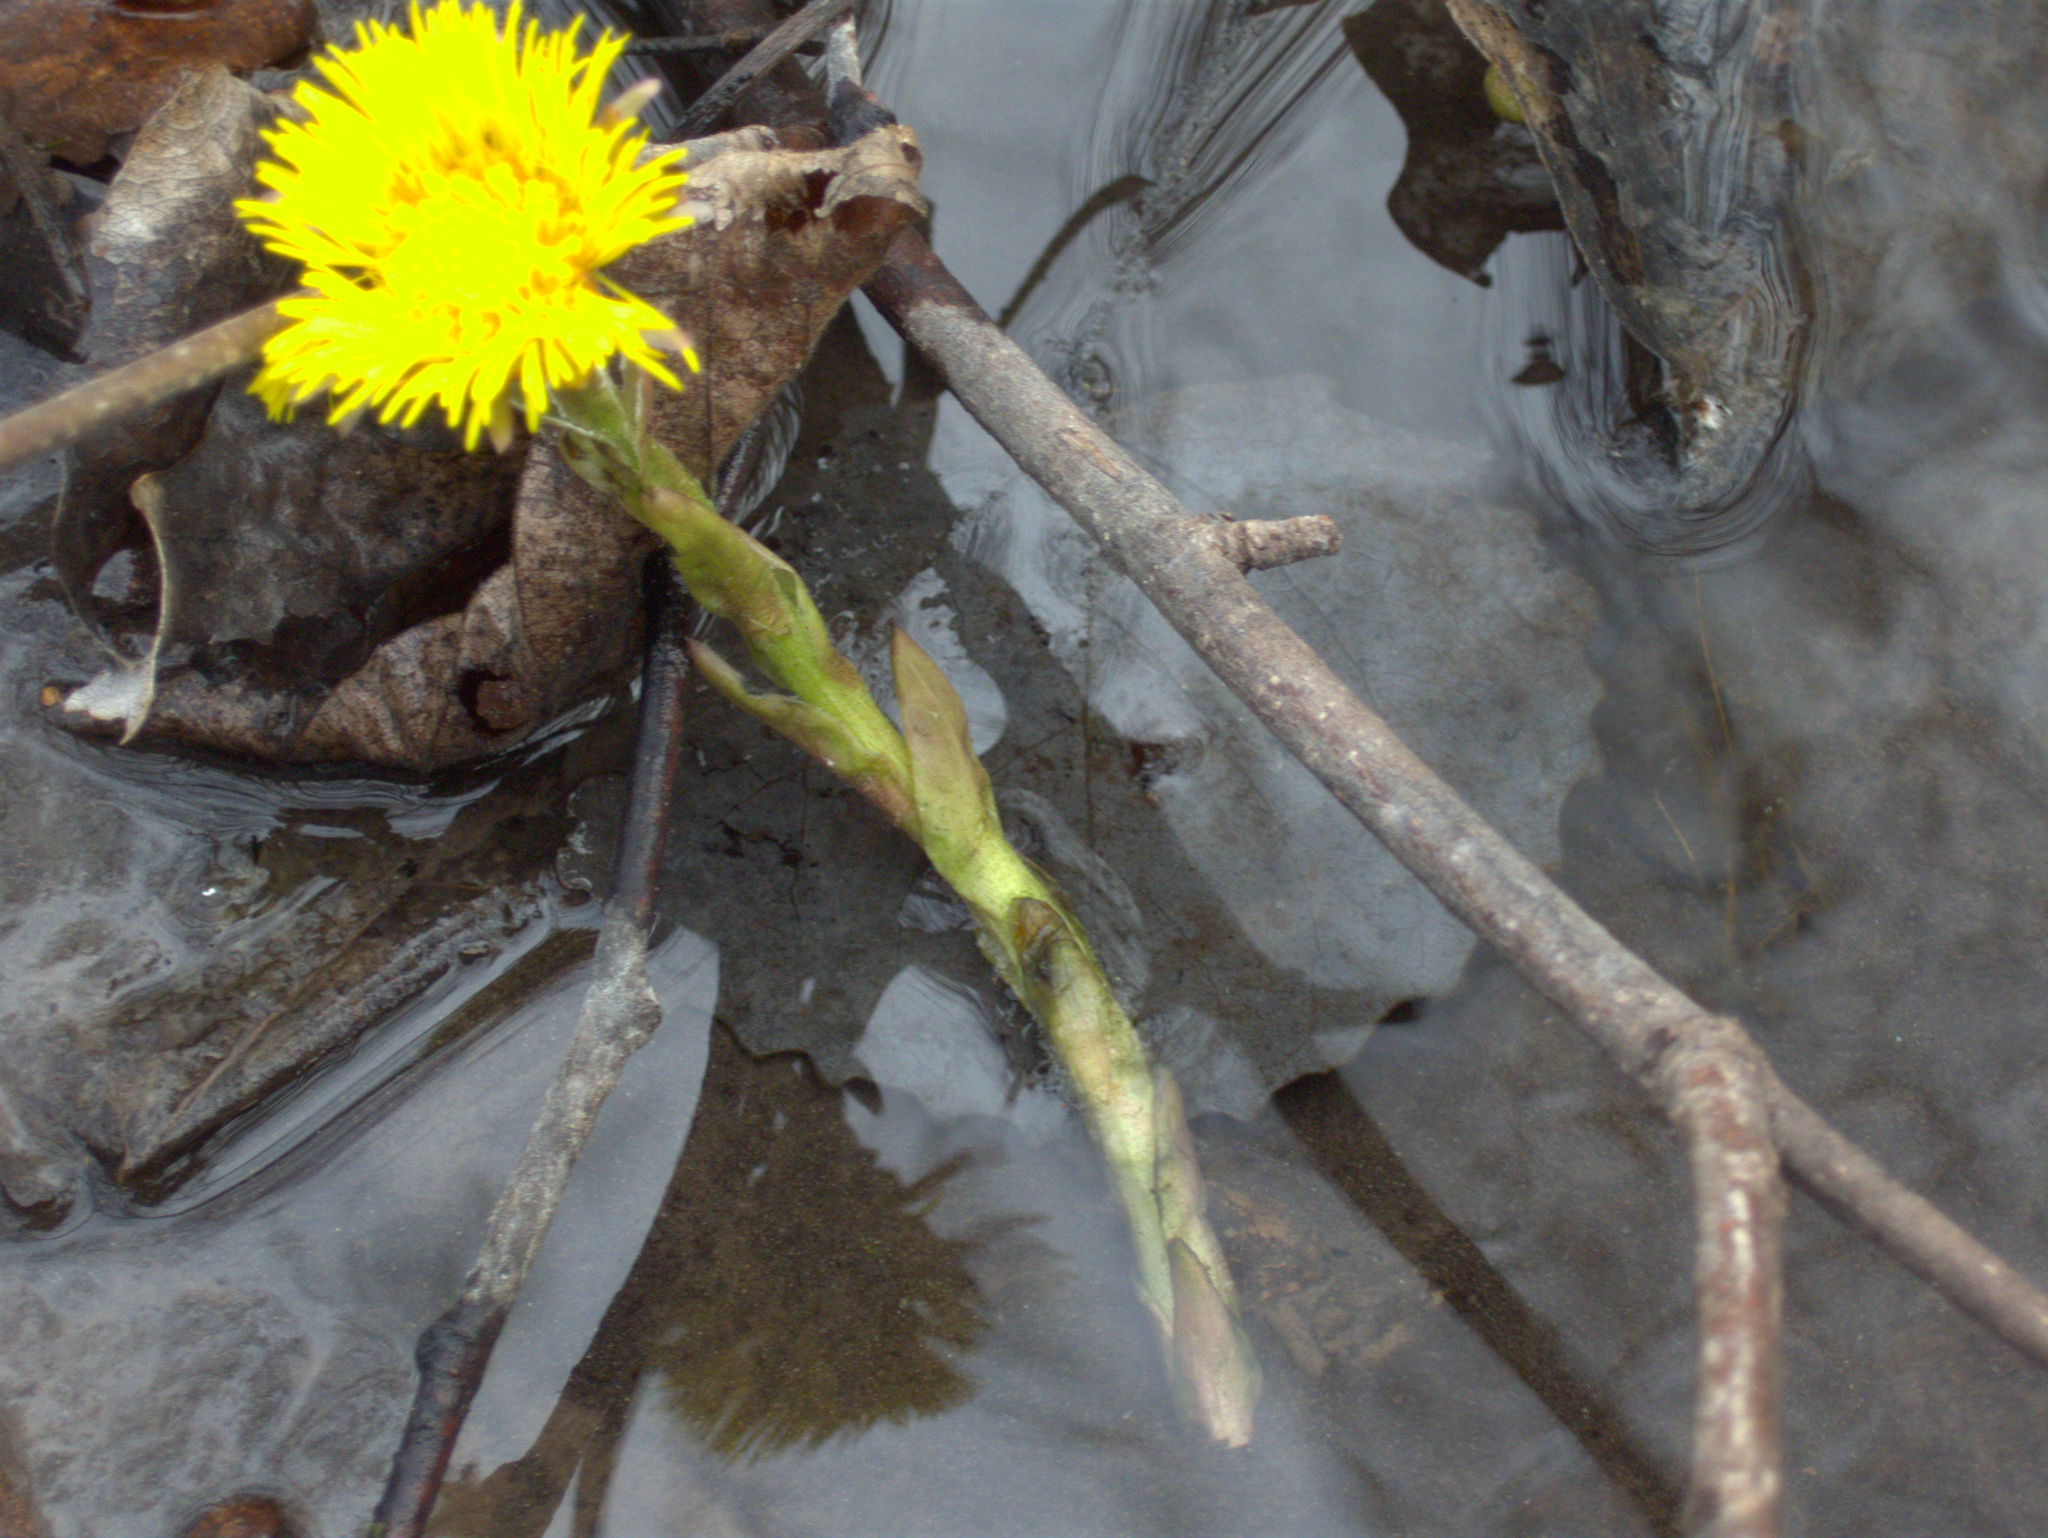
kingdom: Plantae
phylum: Tracheophyta
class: Magnoliopsida
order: Asterales
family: Asteraceae
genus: Tussilago
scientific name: Tussilago farfara
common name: Coltsfoot
